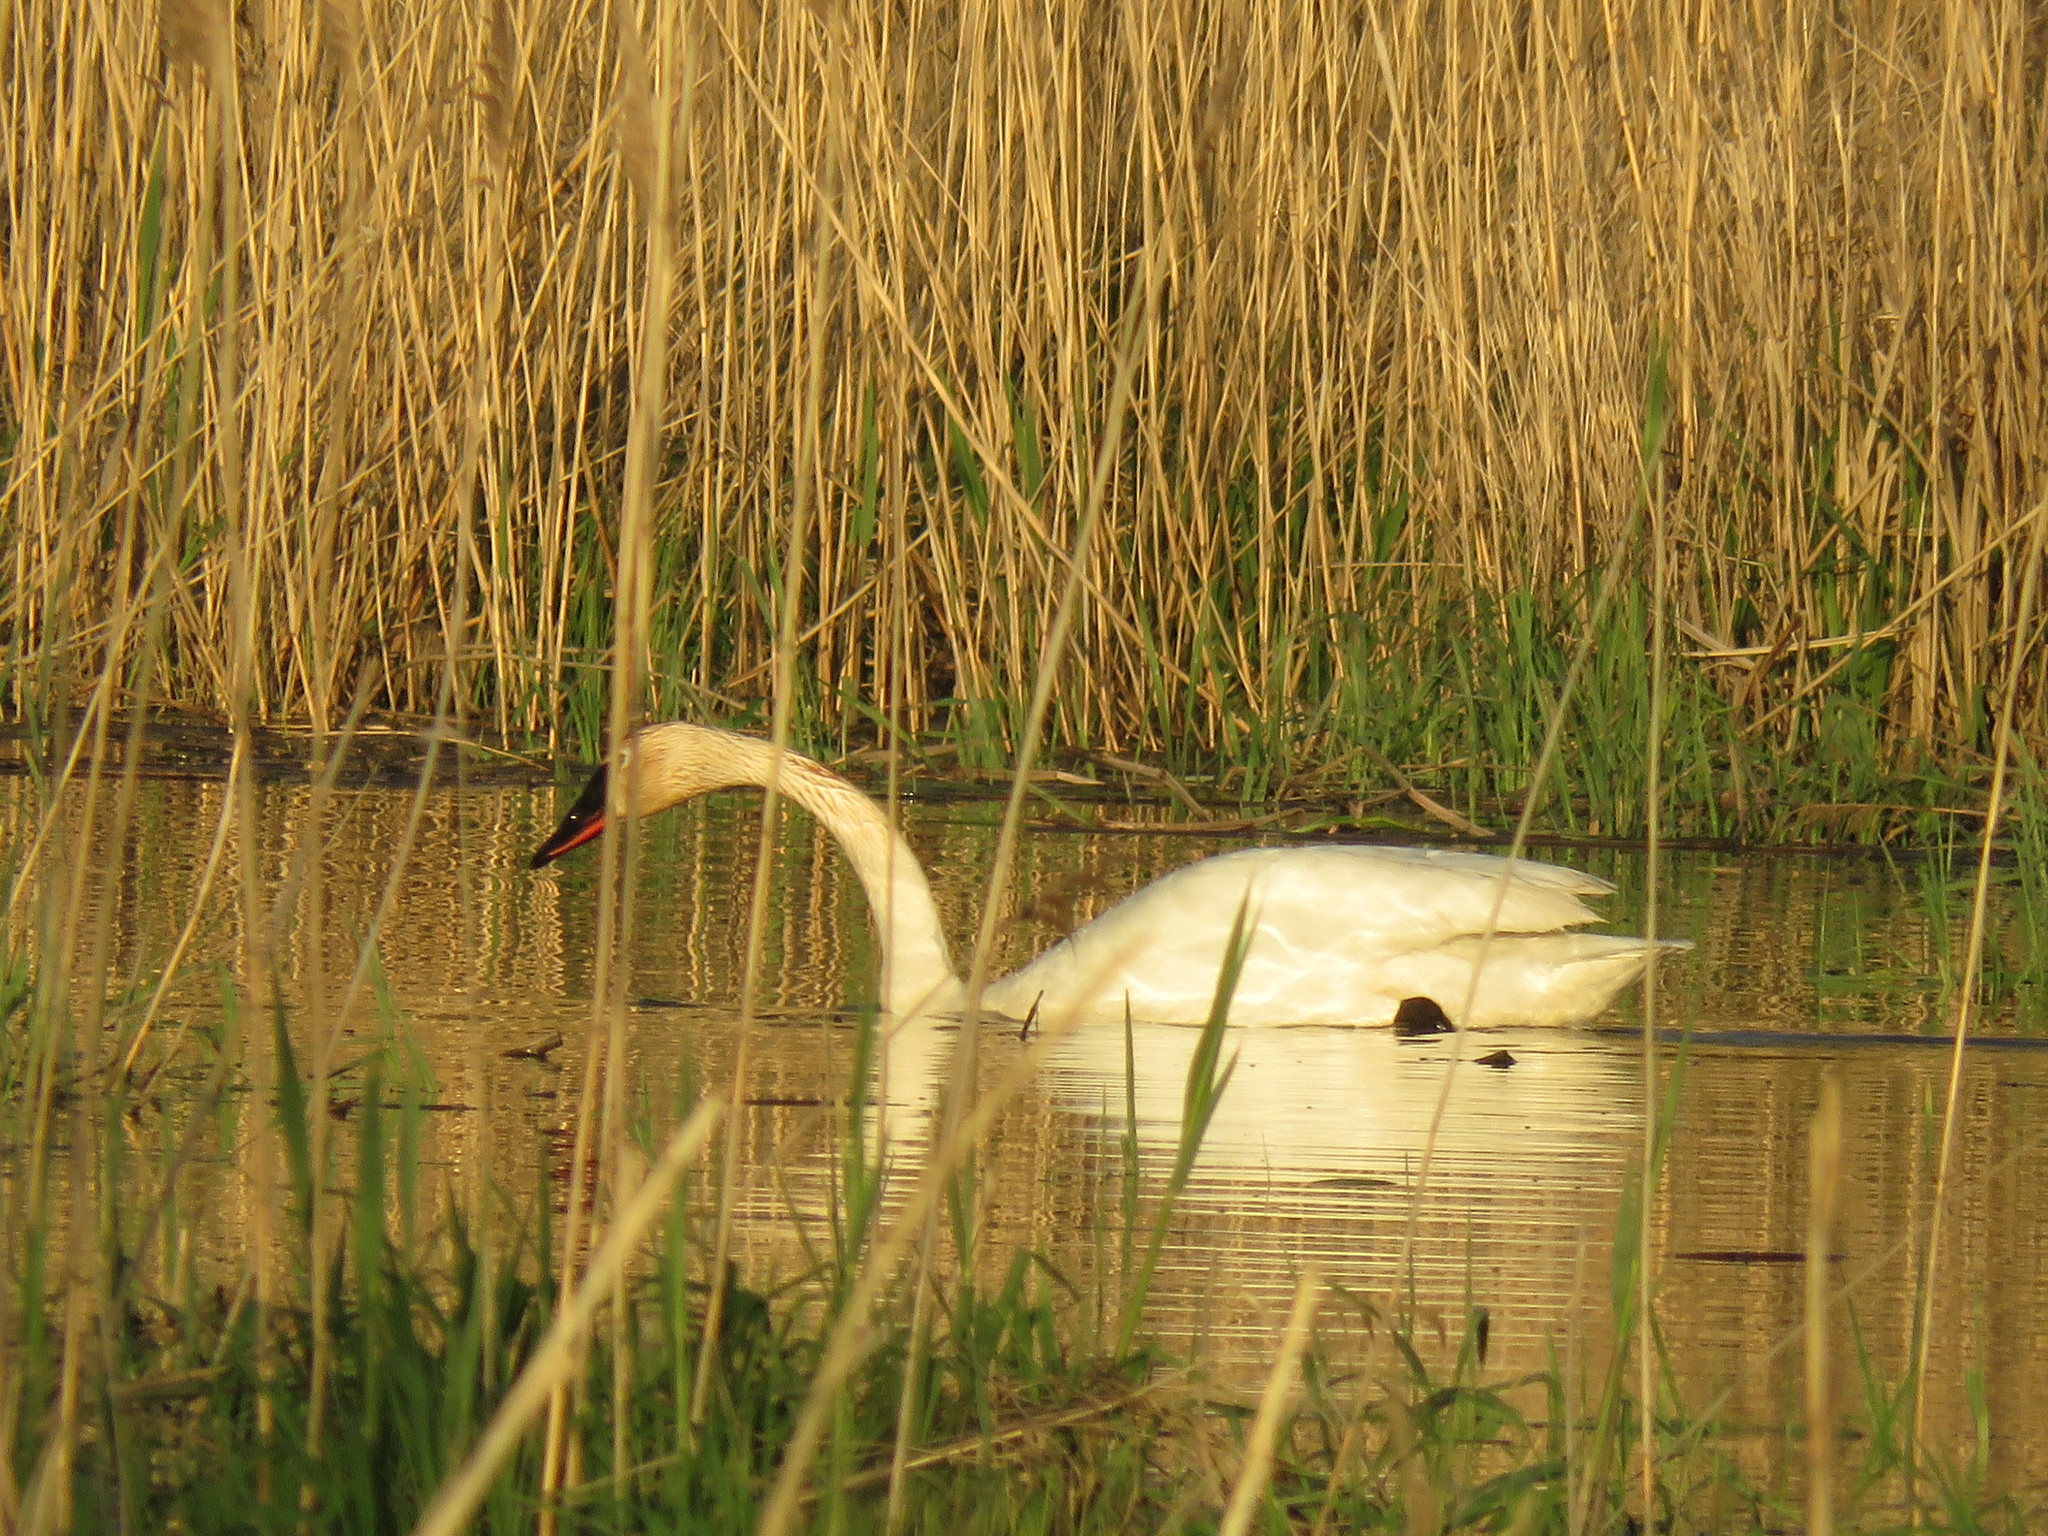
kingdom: Animalia
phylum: Chordata
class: Aves
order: Anseriformes
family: Anatidae
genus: Cygnus
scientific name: Cygnus buccinator
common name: Trumpeter swan
